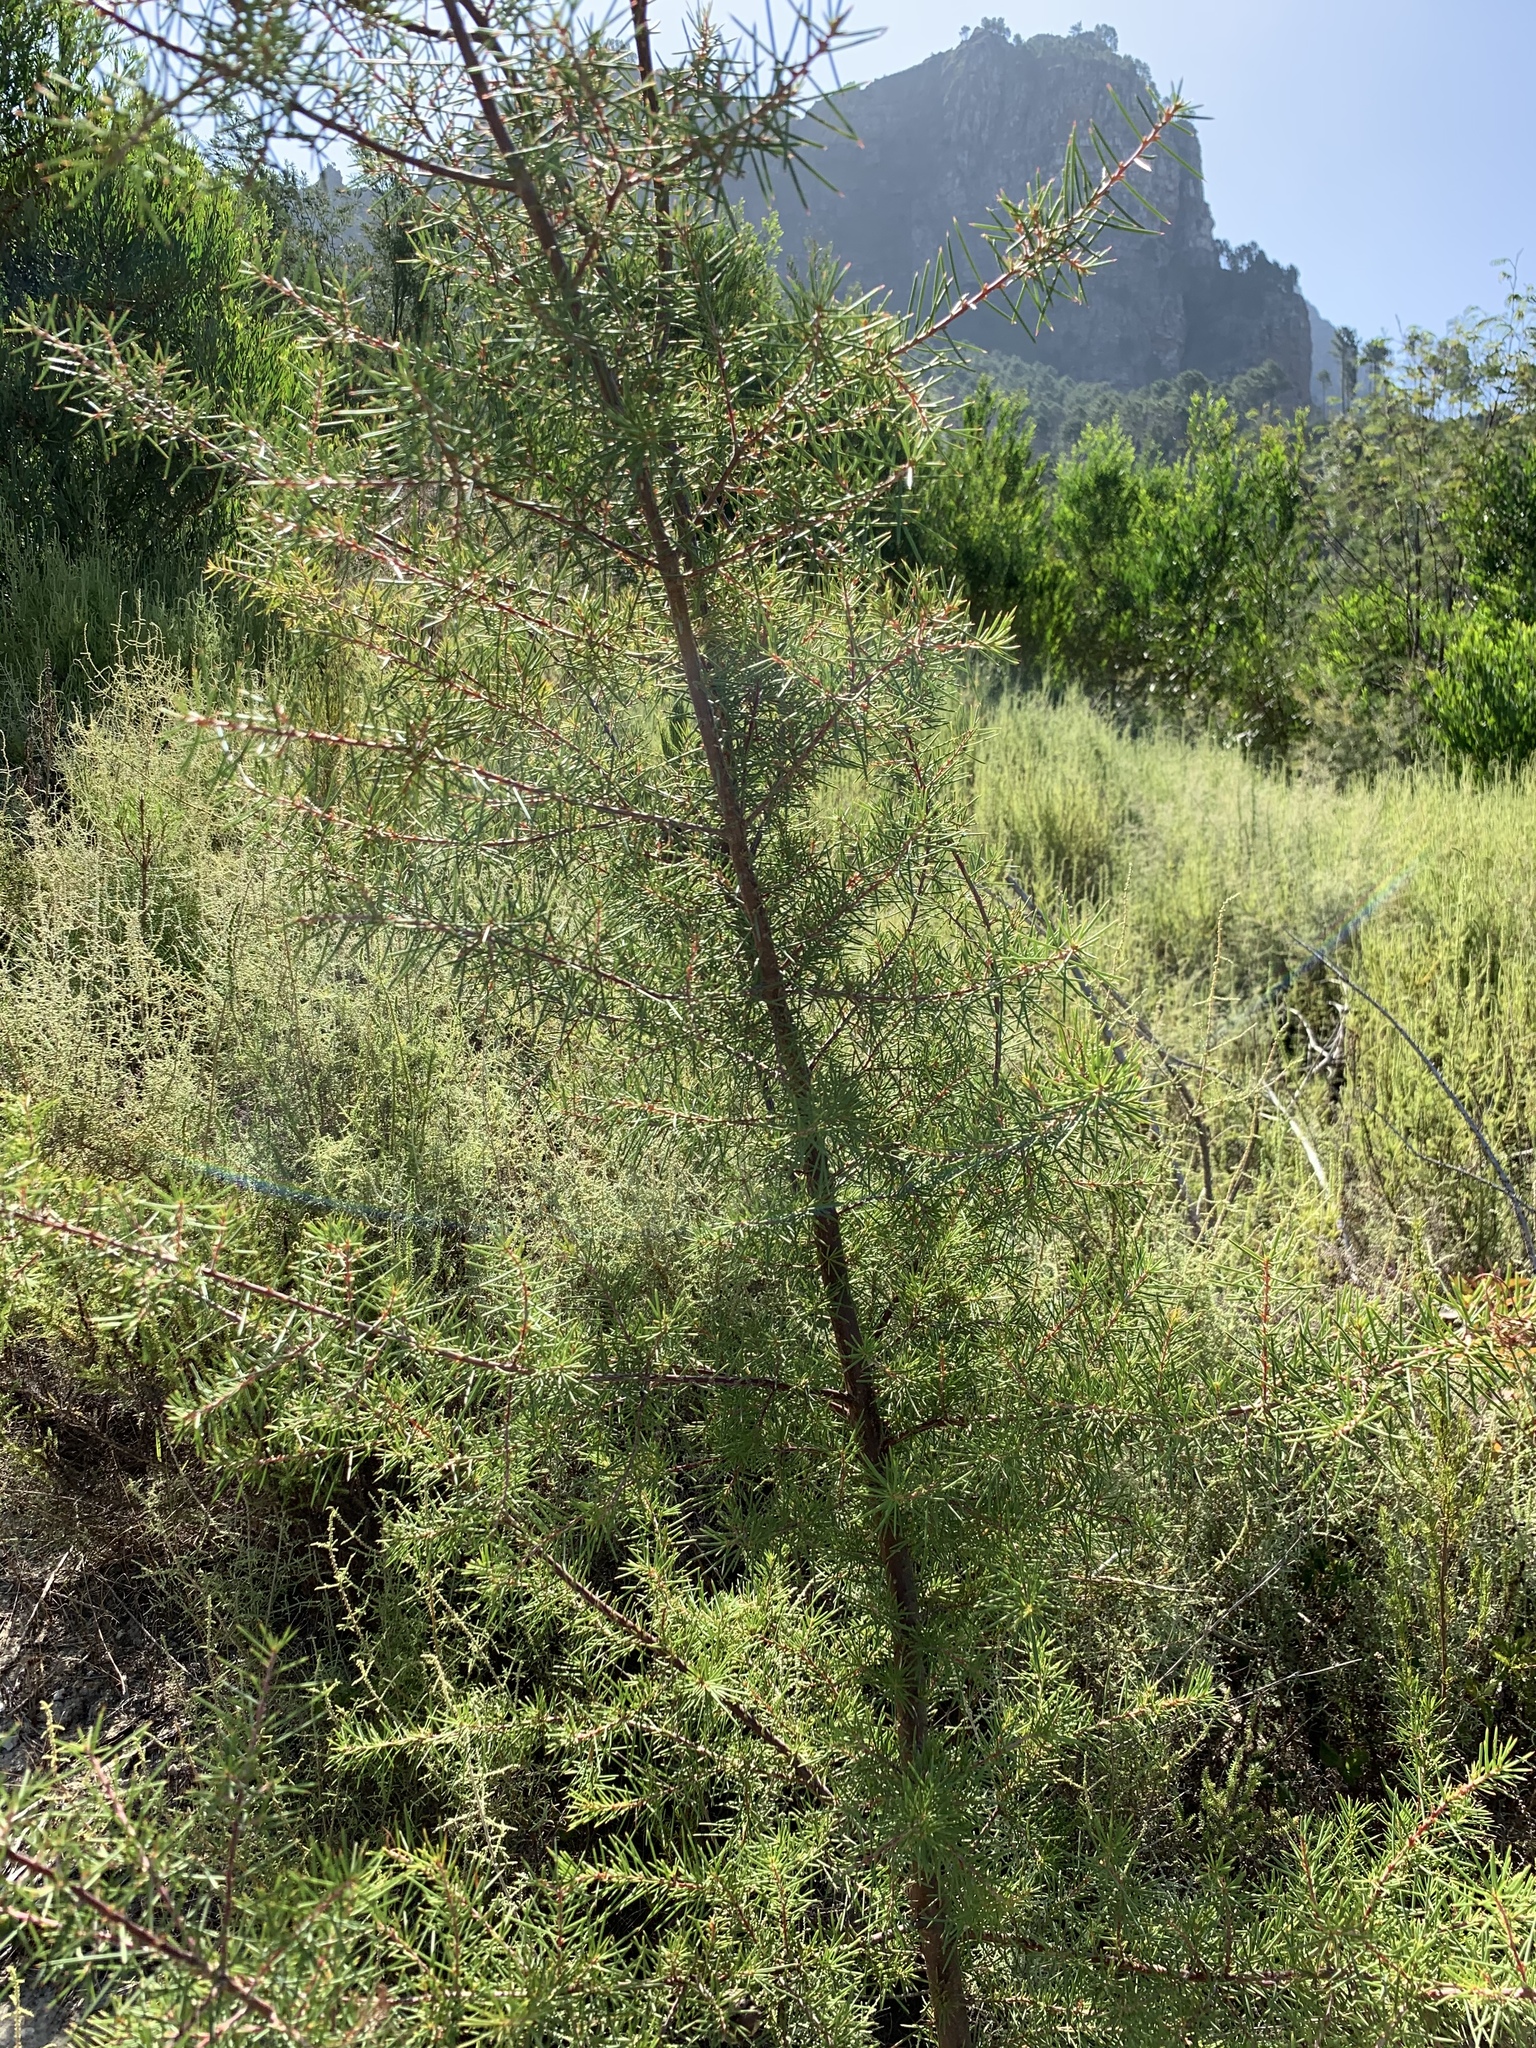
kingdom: Plantae
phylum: Tracheophyta
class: Magnoliopsida
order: Proteales
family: Proteaceae
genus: Hakea
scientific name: Hakea sericea
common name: Needle bush
